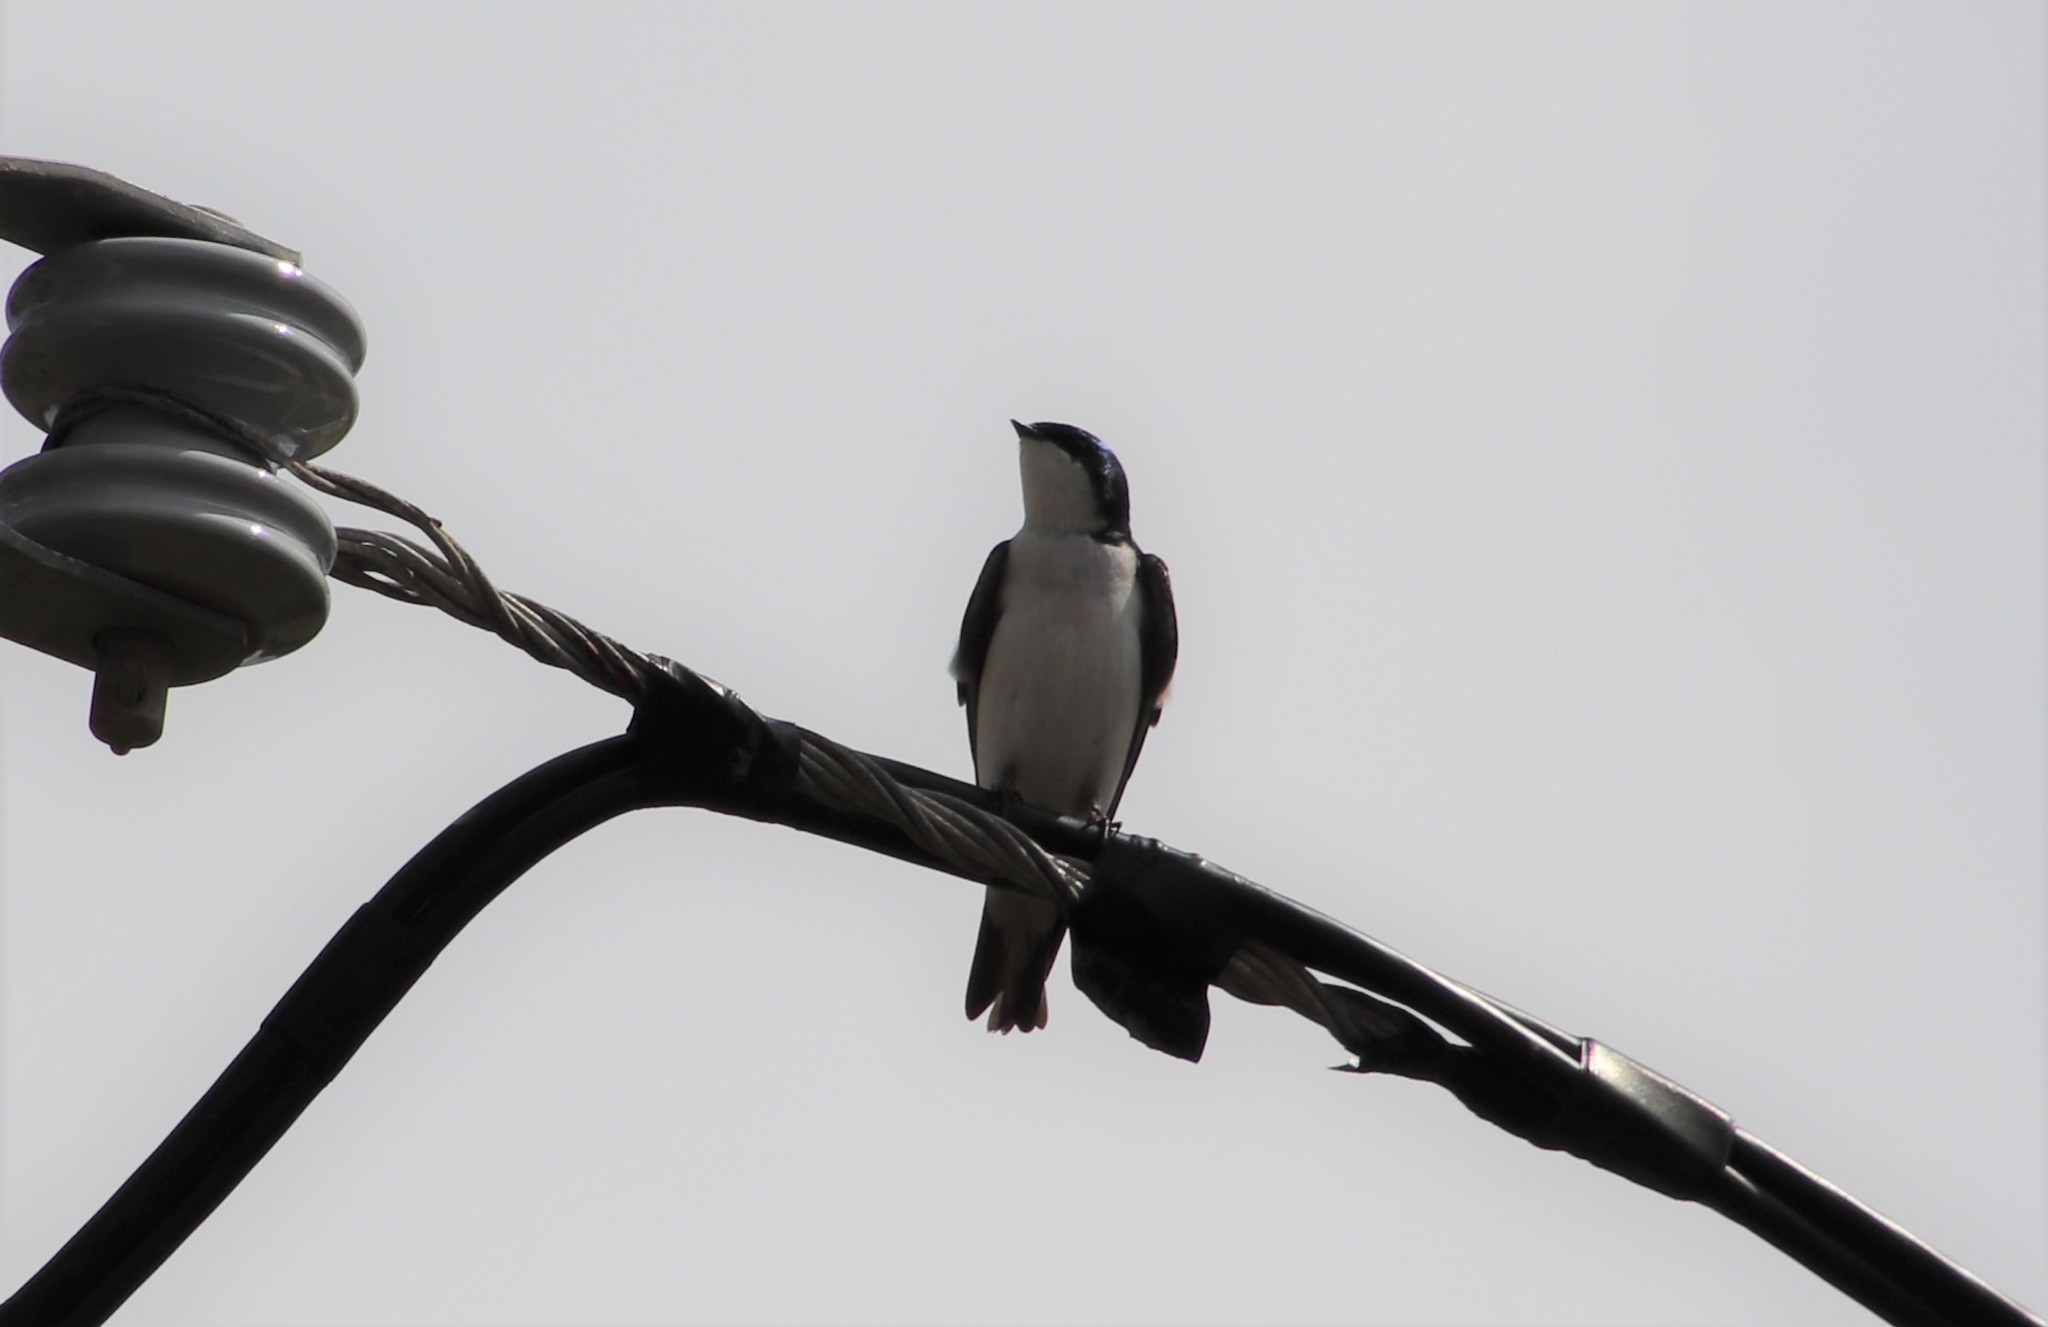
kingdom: Animalia
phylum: Chordata
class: Aves
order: Passeriformes
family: Hirundinidae
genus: Tachycineta
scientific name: Tachycineta bicolor
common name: Tree swallow
